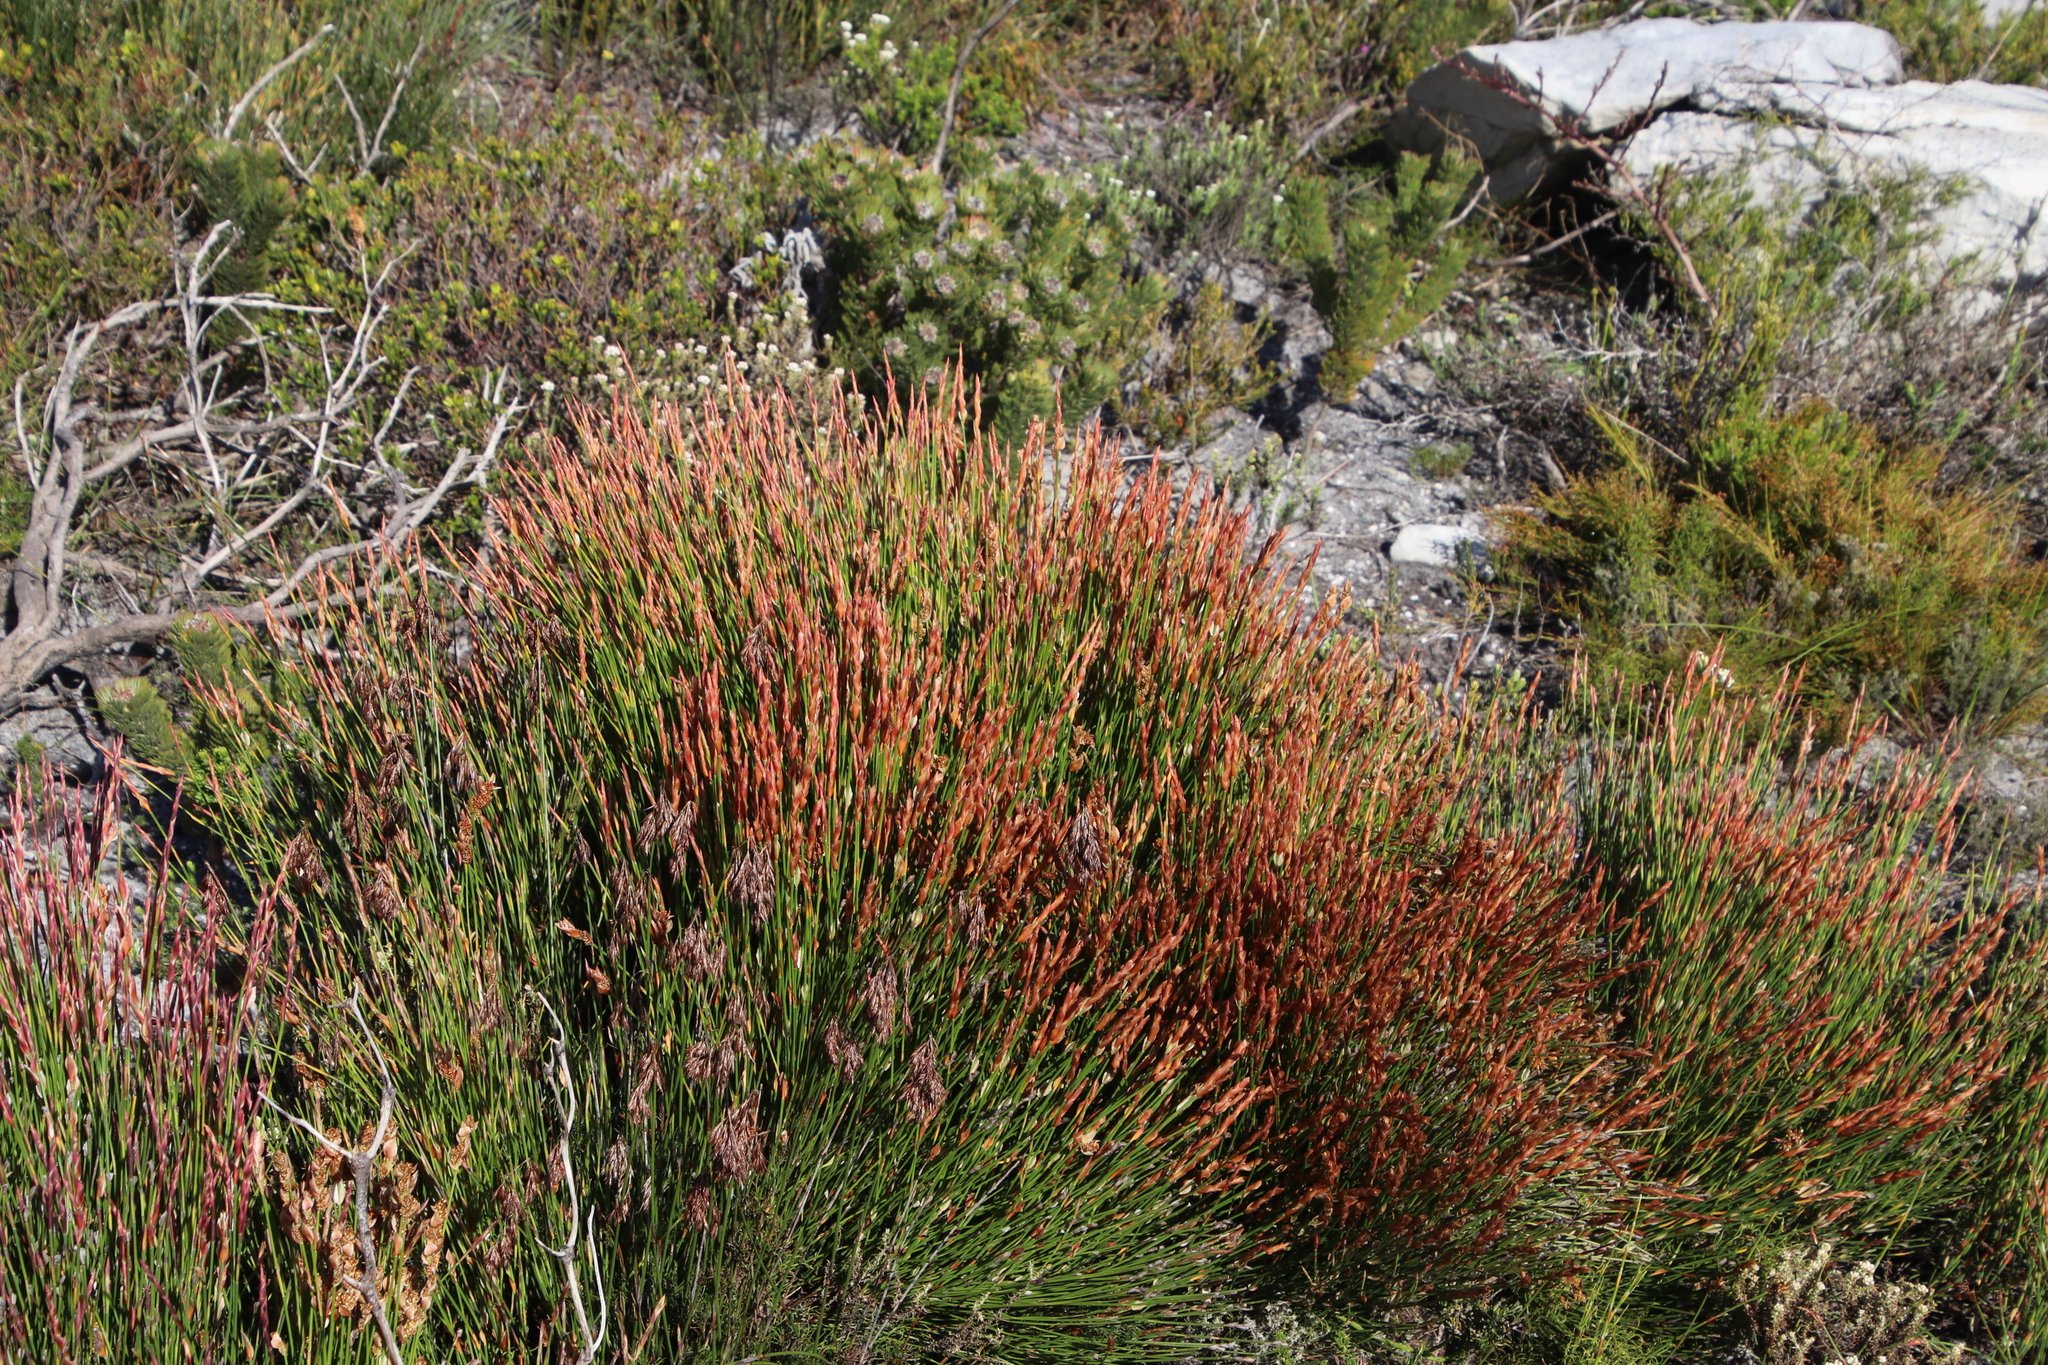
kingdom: Plantae
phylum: Tracheophyta
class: Liliopsida
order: Poales
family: Restionaceae
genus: Elegia
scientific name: Elegia stipularis
